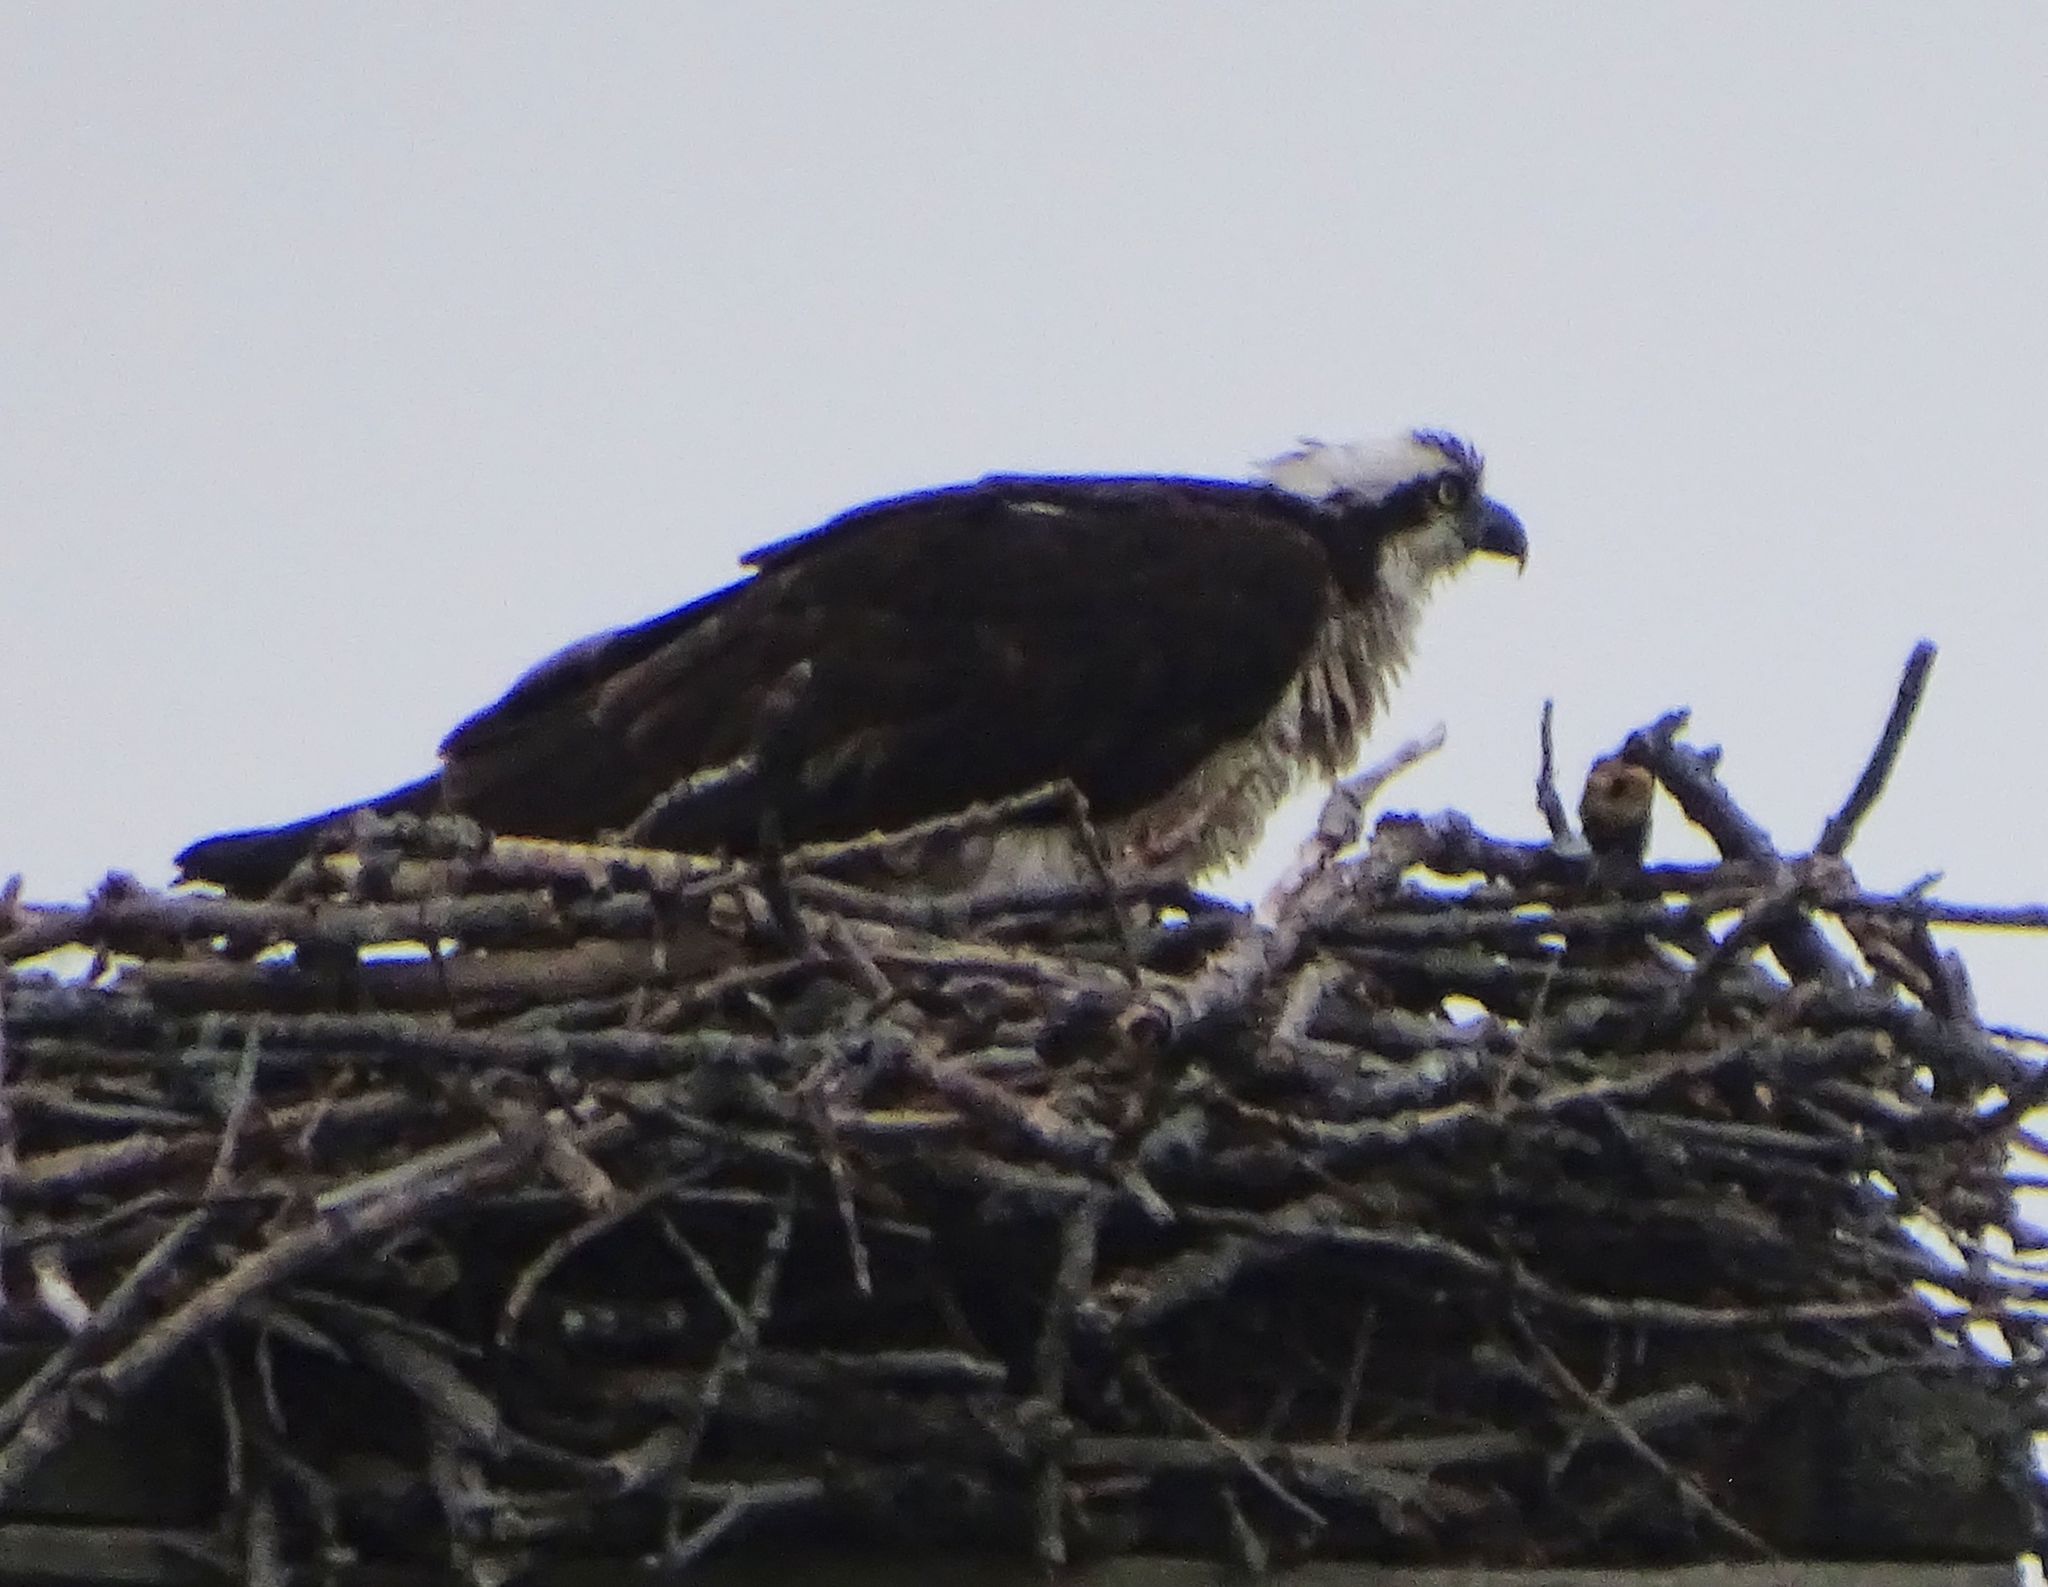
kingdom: Animalia
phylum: Chordata
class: Aves
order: Accipitriformes
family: Pandionidae
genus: Pandion
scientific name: Pandion haliaetus
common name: Osprey
